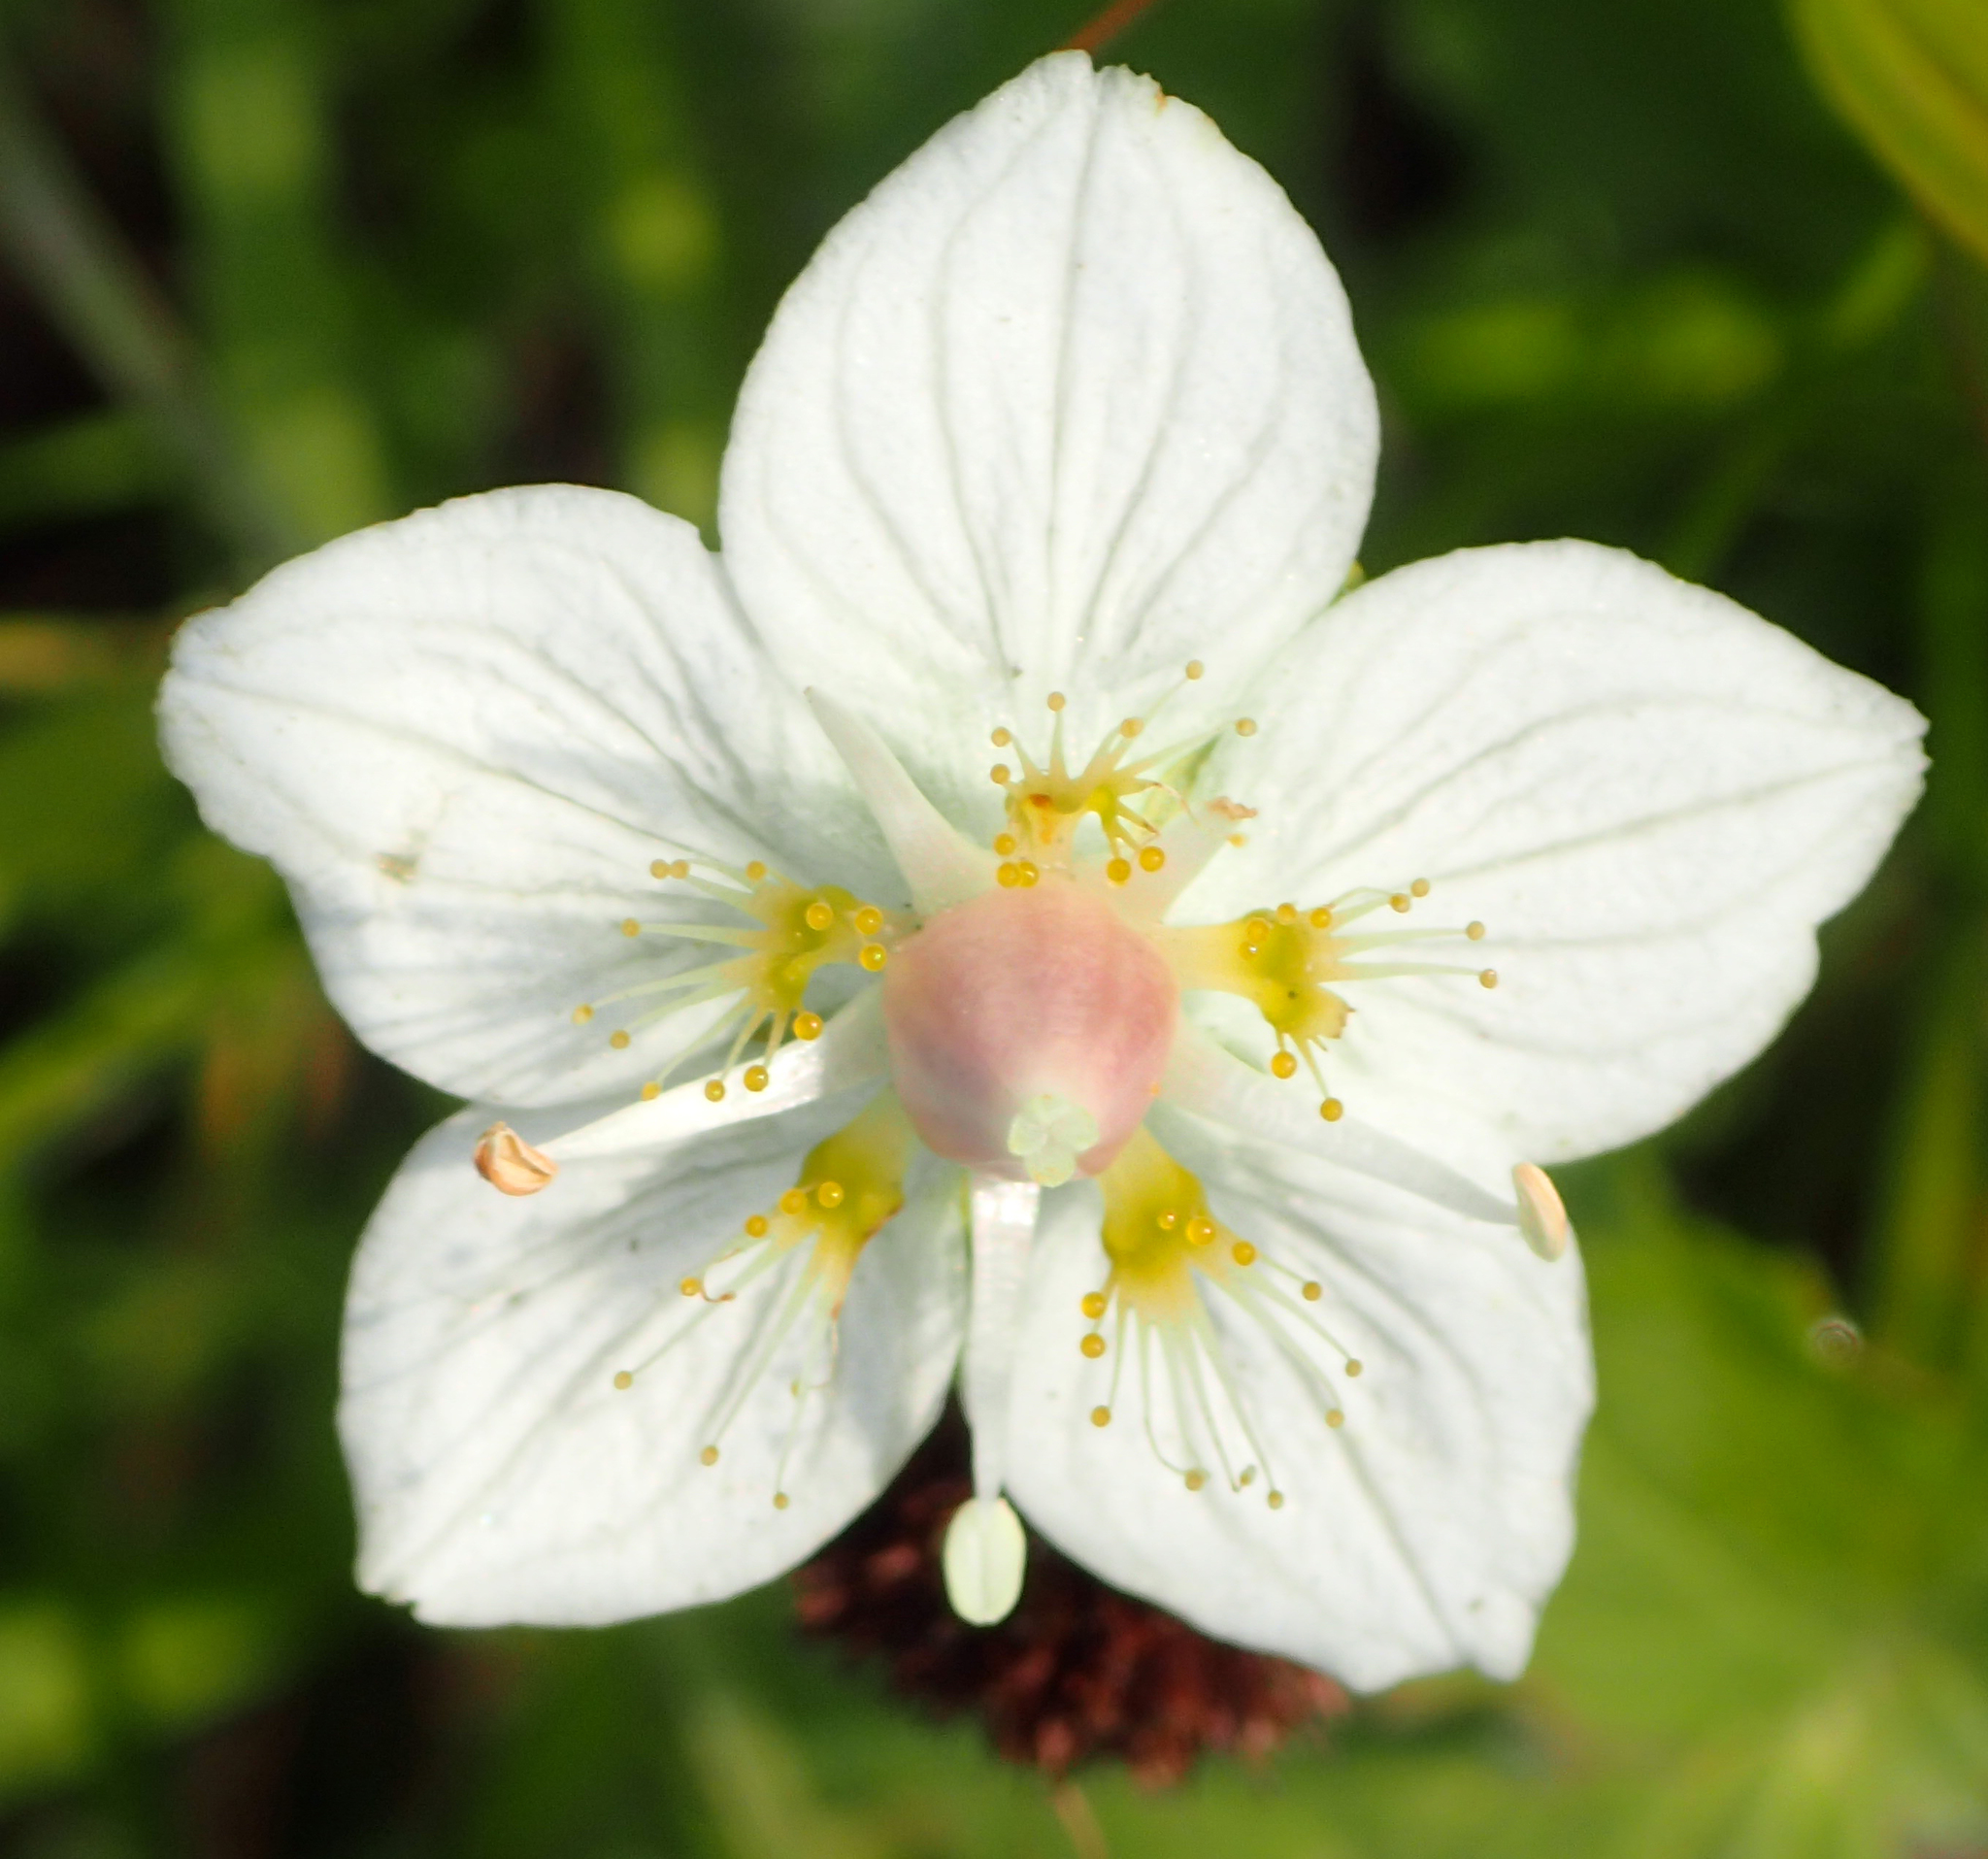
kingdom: Plantae
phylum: Tracheophyta
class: Magnoliopsida
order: Celastrales
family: Parnassiaceae
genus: Parnassia
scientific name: Parnassia palustris
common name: Grass-of-parnassus
